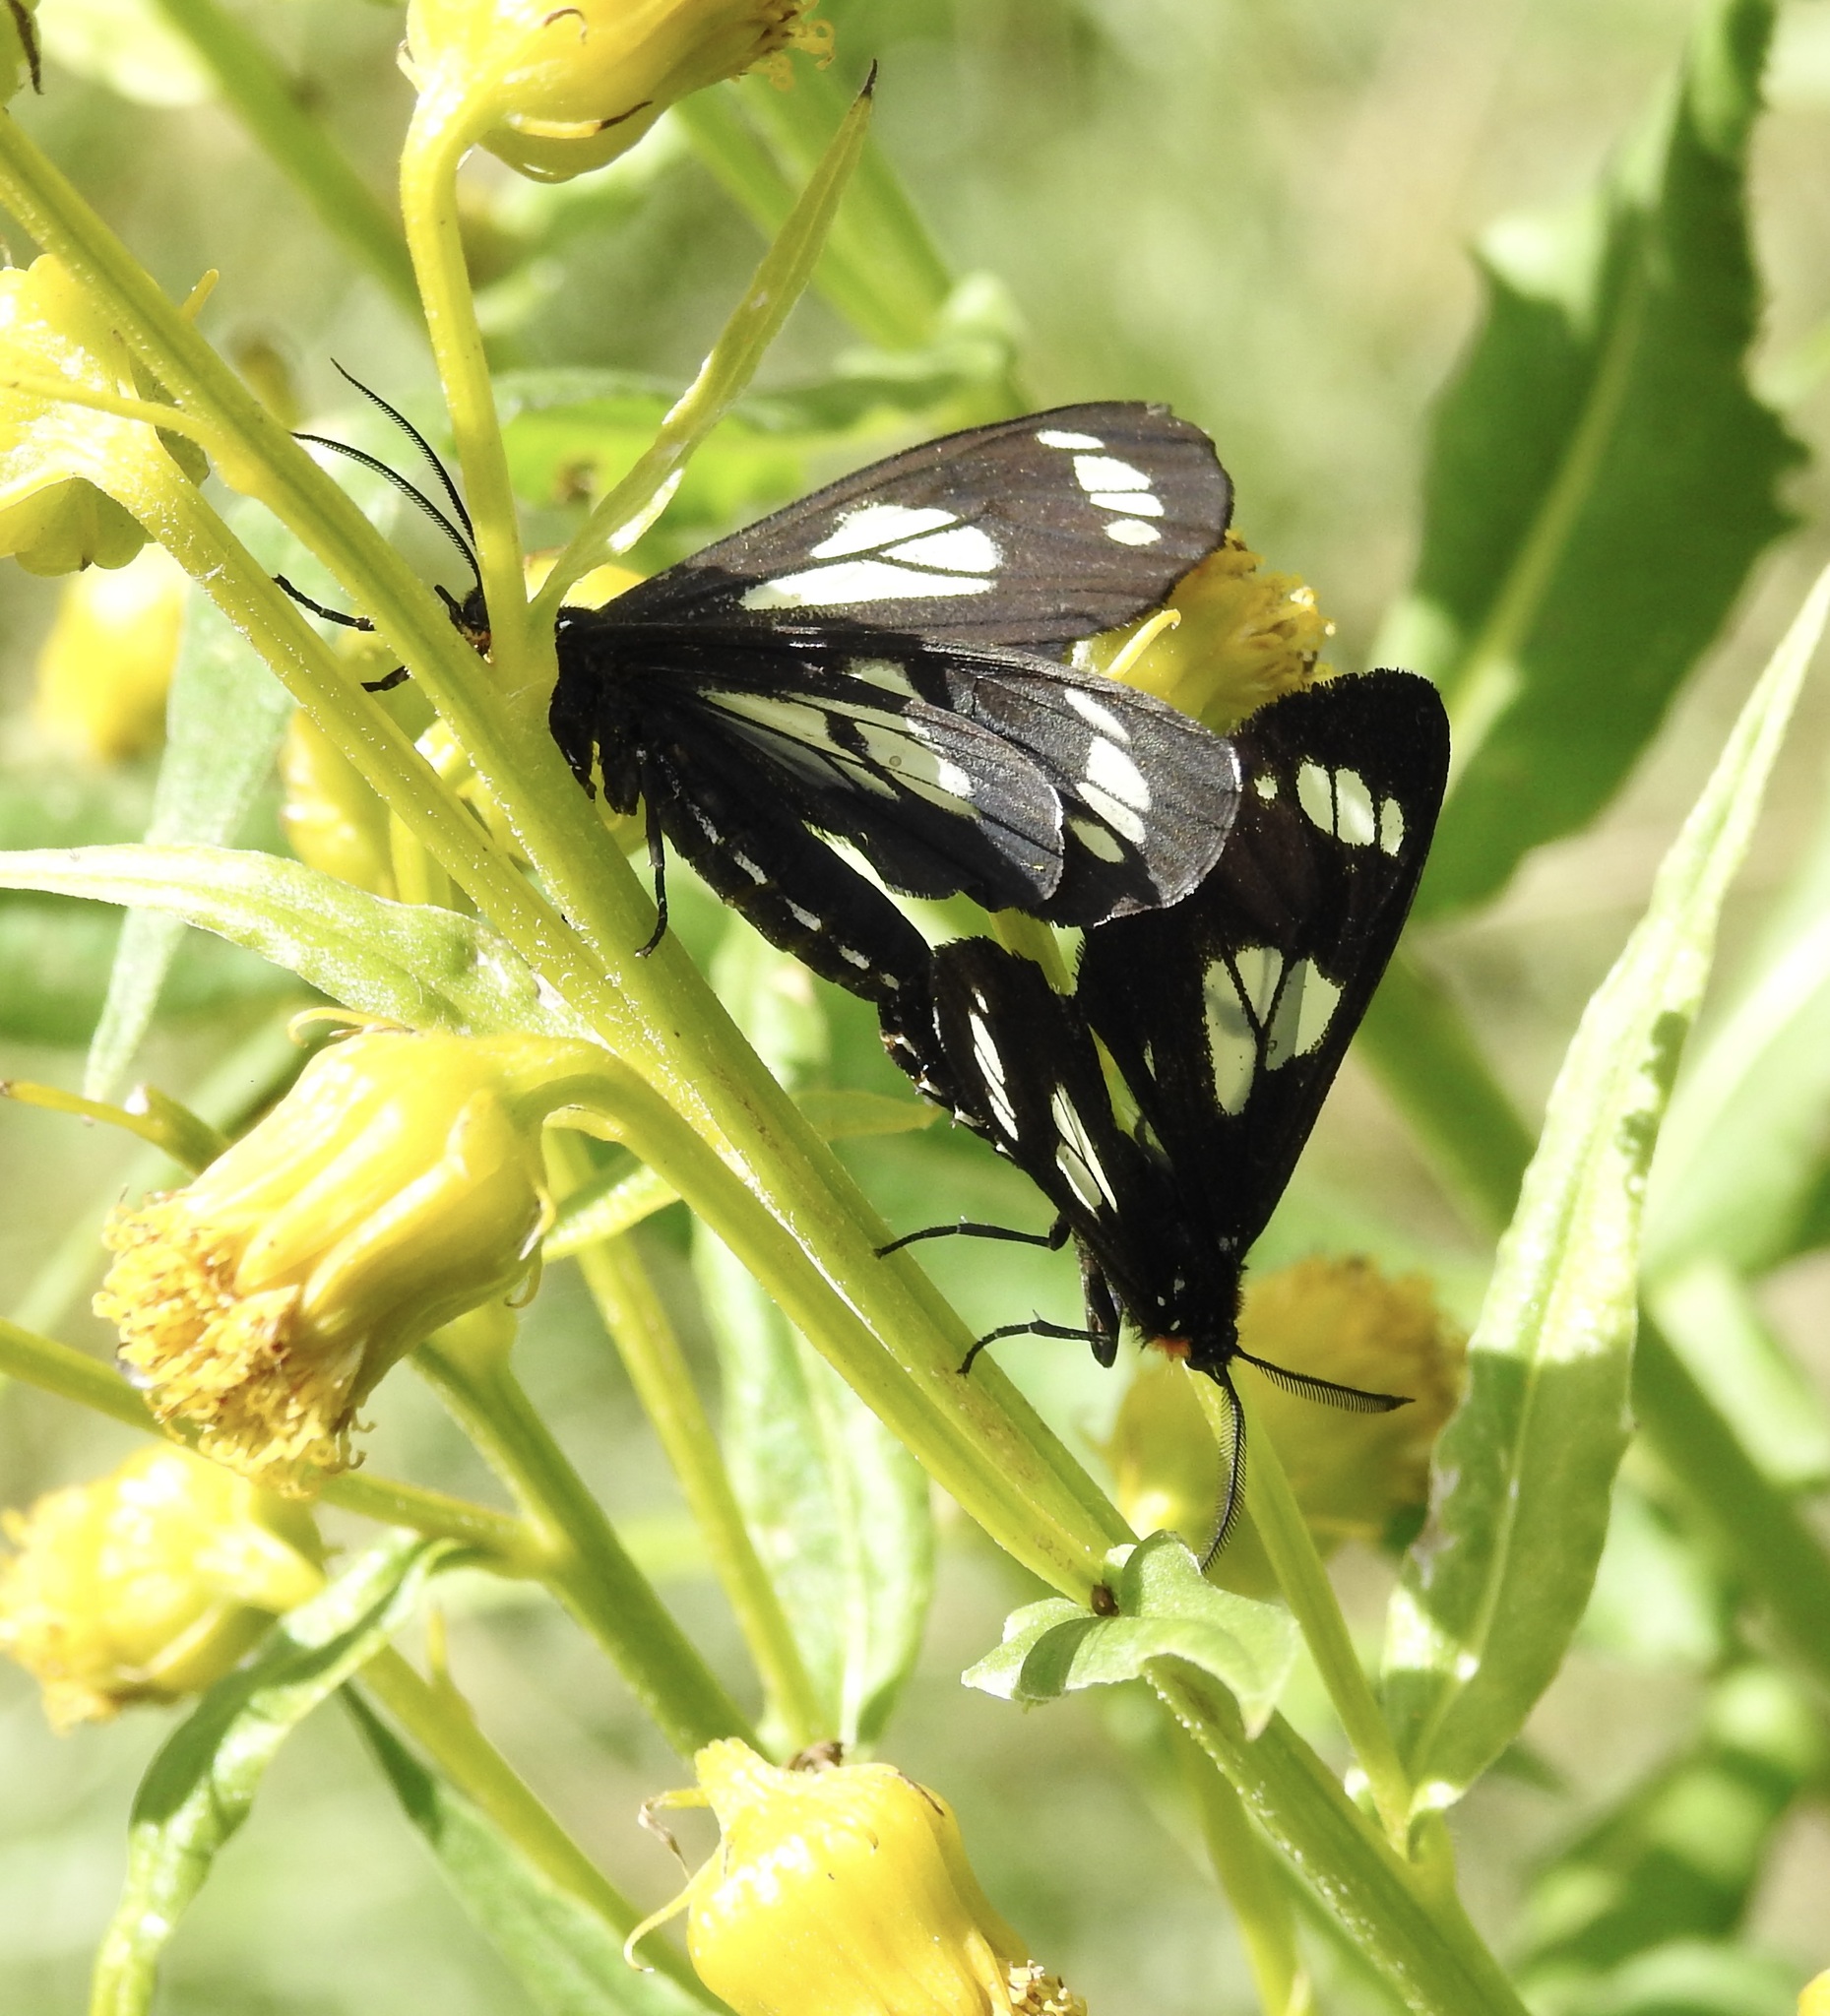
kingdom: Animalia
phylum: Arthropoda
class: Insecta
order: Lepidoptera
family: Erebidae
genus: Gnophaela
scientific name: Gnophaela discreta
